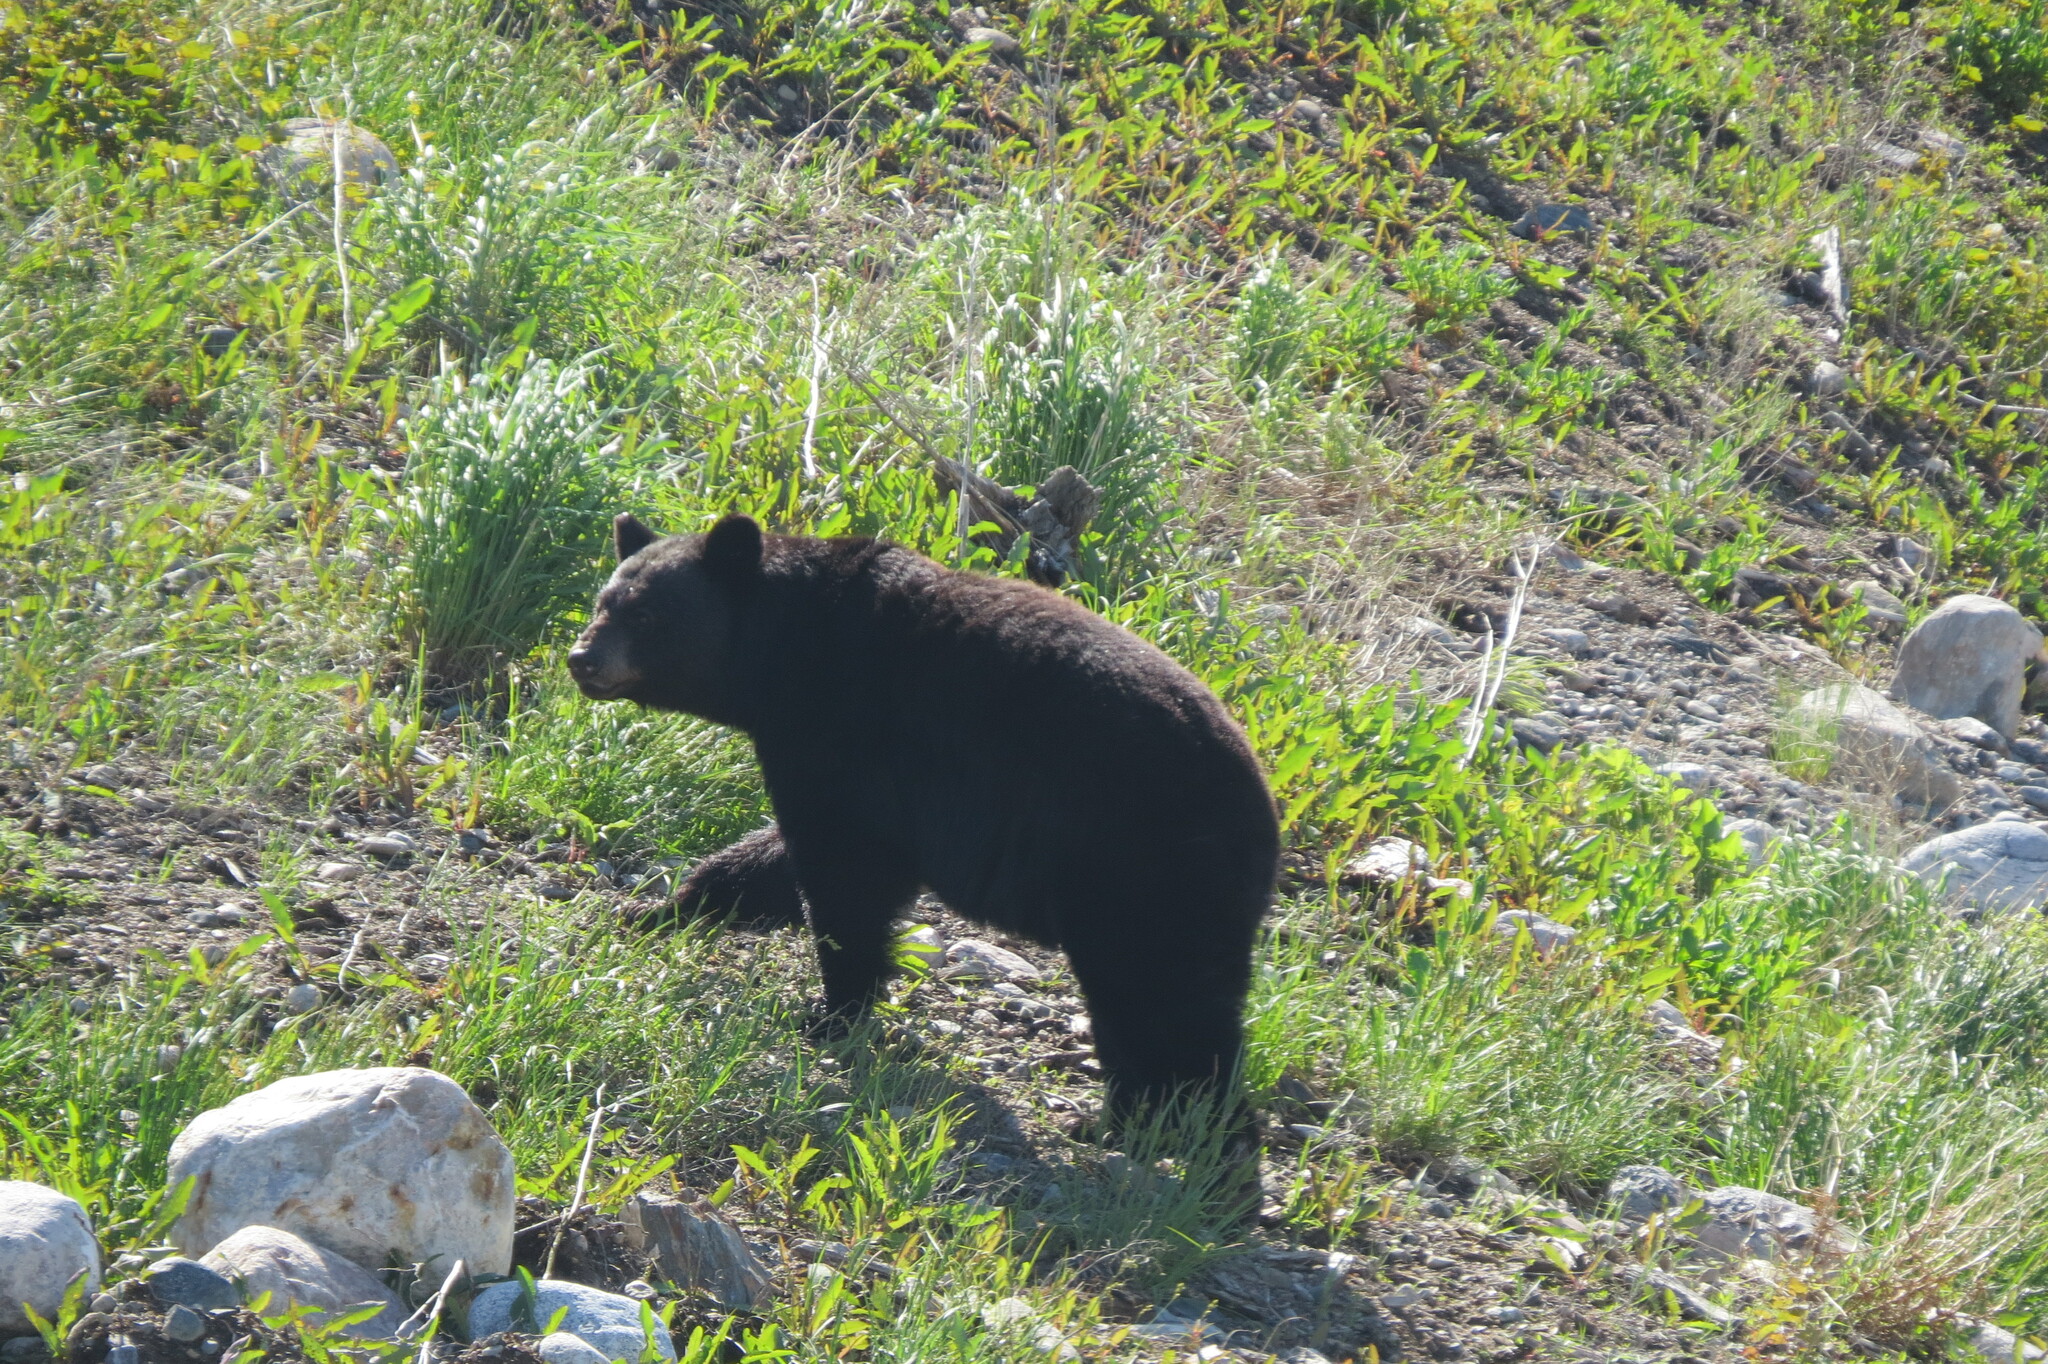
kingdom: Animalia
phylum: Chordata
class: Mammalia
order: Carnivora
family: Ursidae
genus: Ursus
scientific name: Ursus americanus
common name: American black bear
